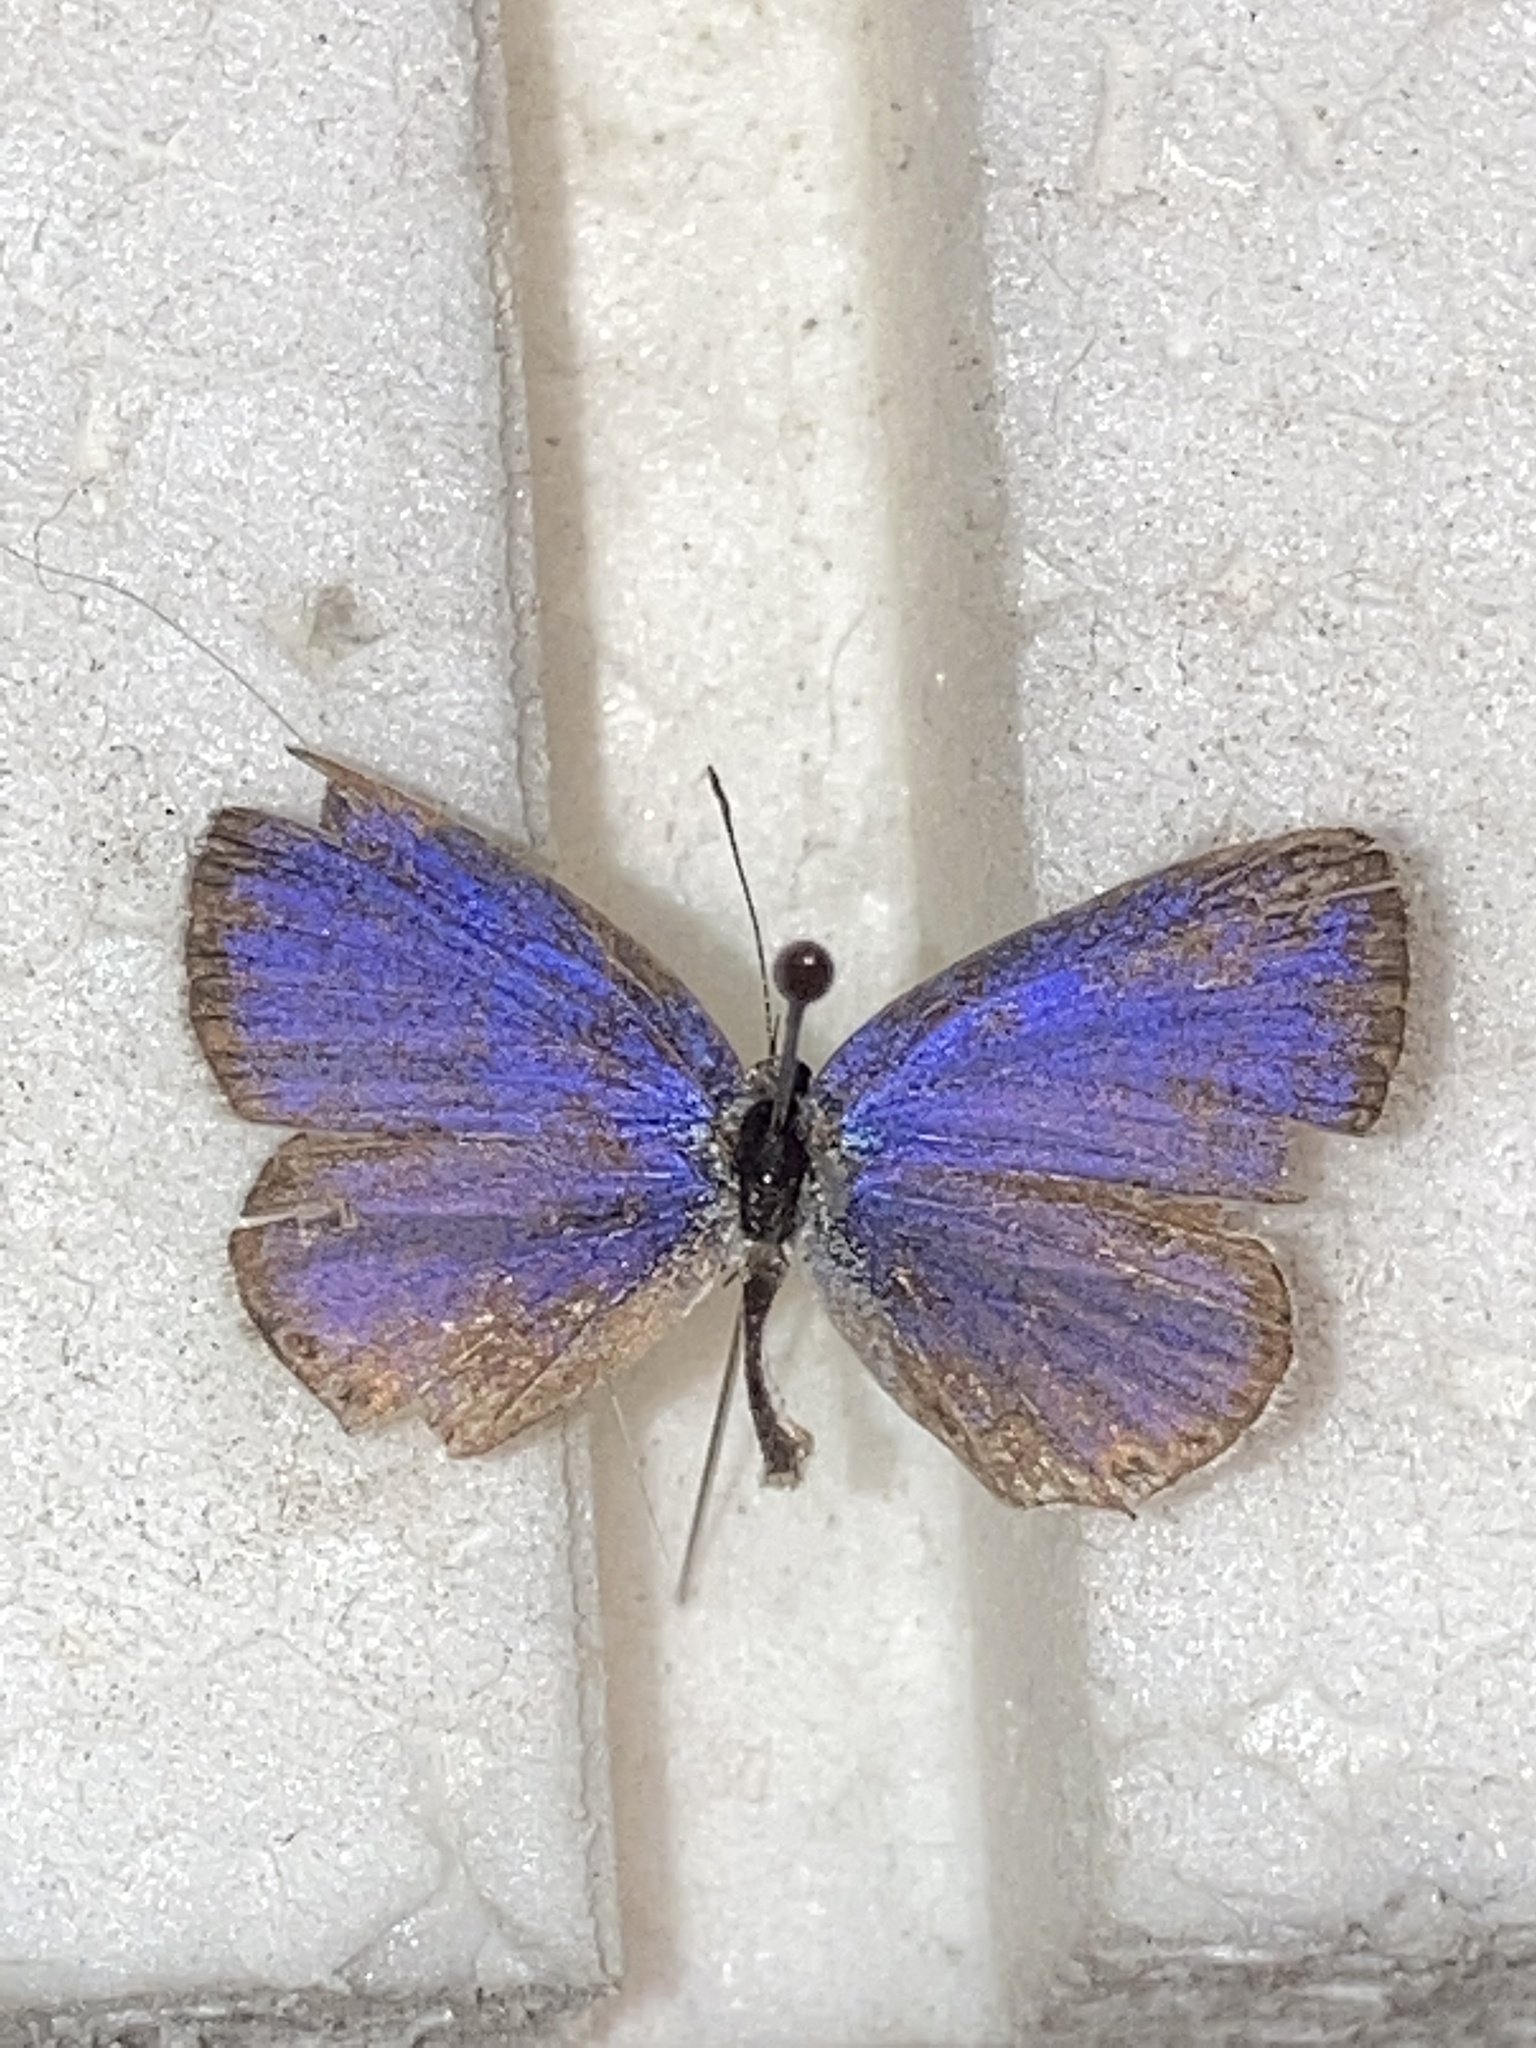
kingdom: Animalia
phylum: Arthropoda
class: Insecta
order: Lepidoptera
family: Lycaenidae
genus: Elkalyce
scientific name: Elkalyce comyntas
